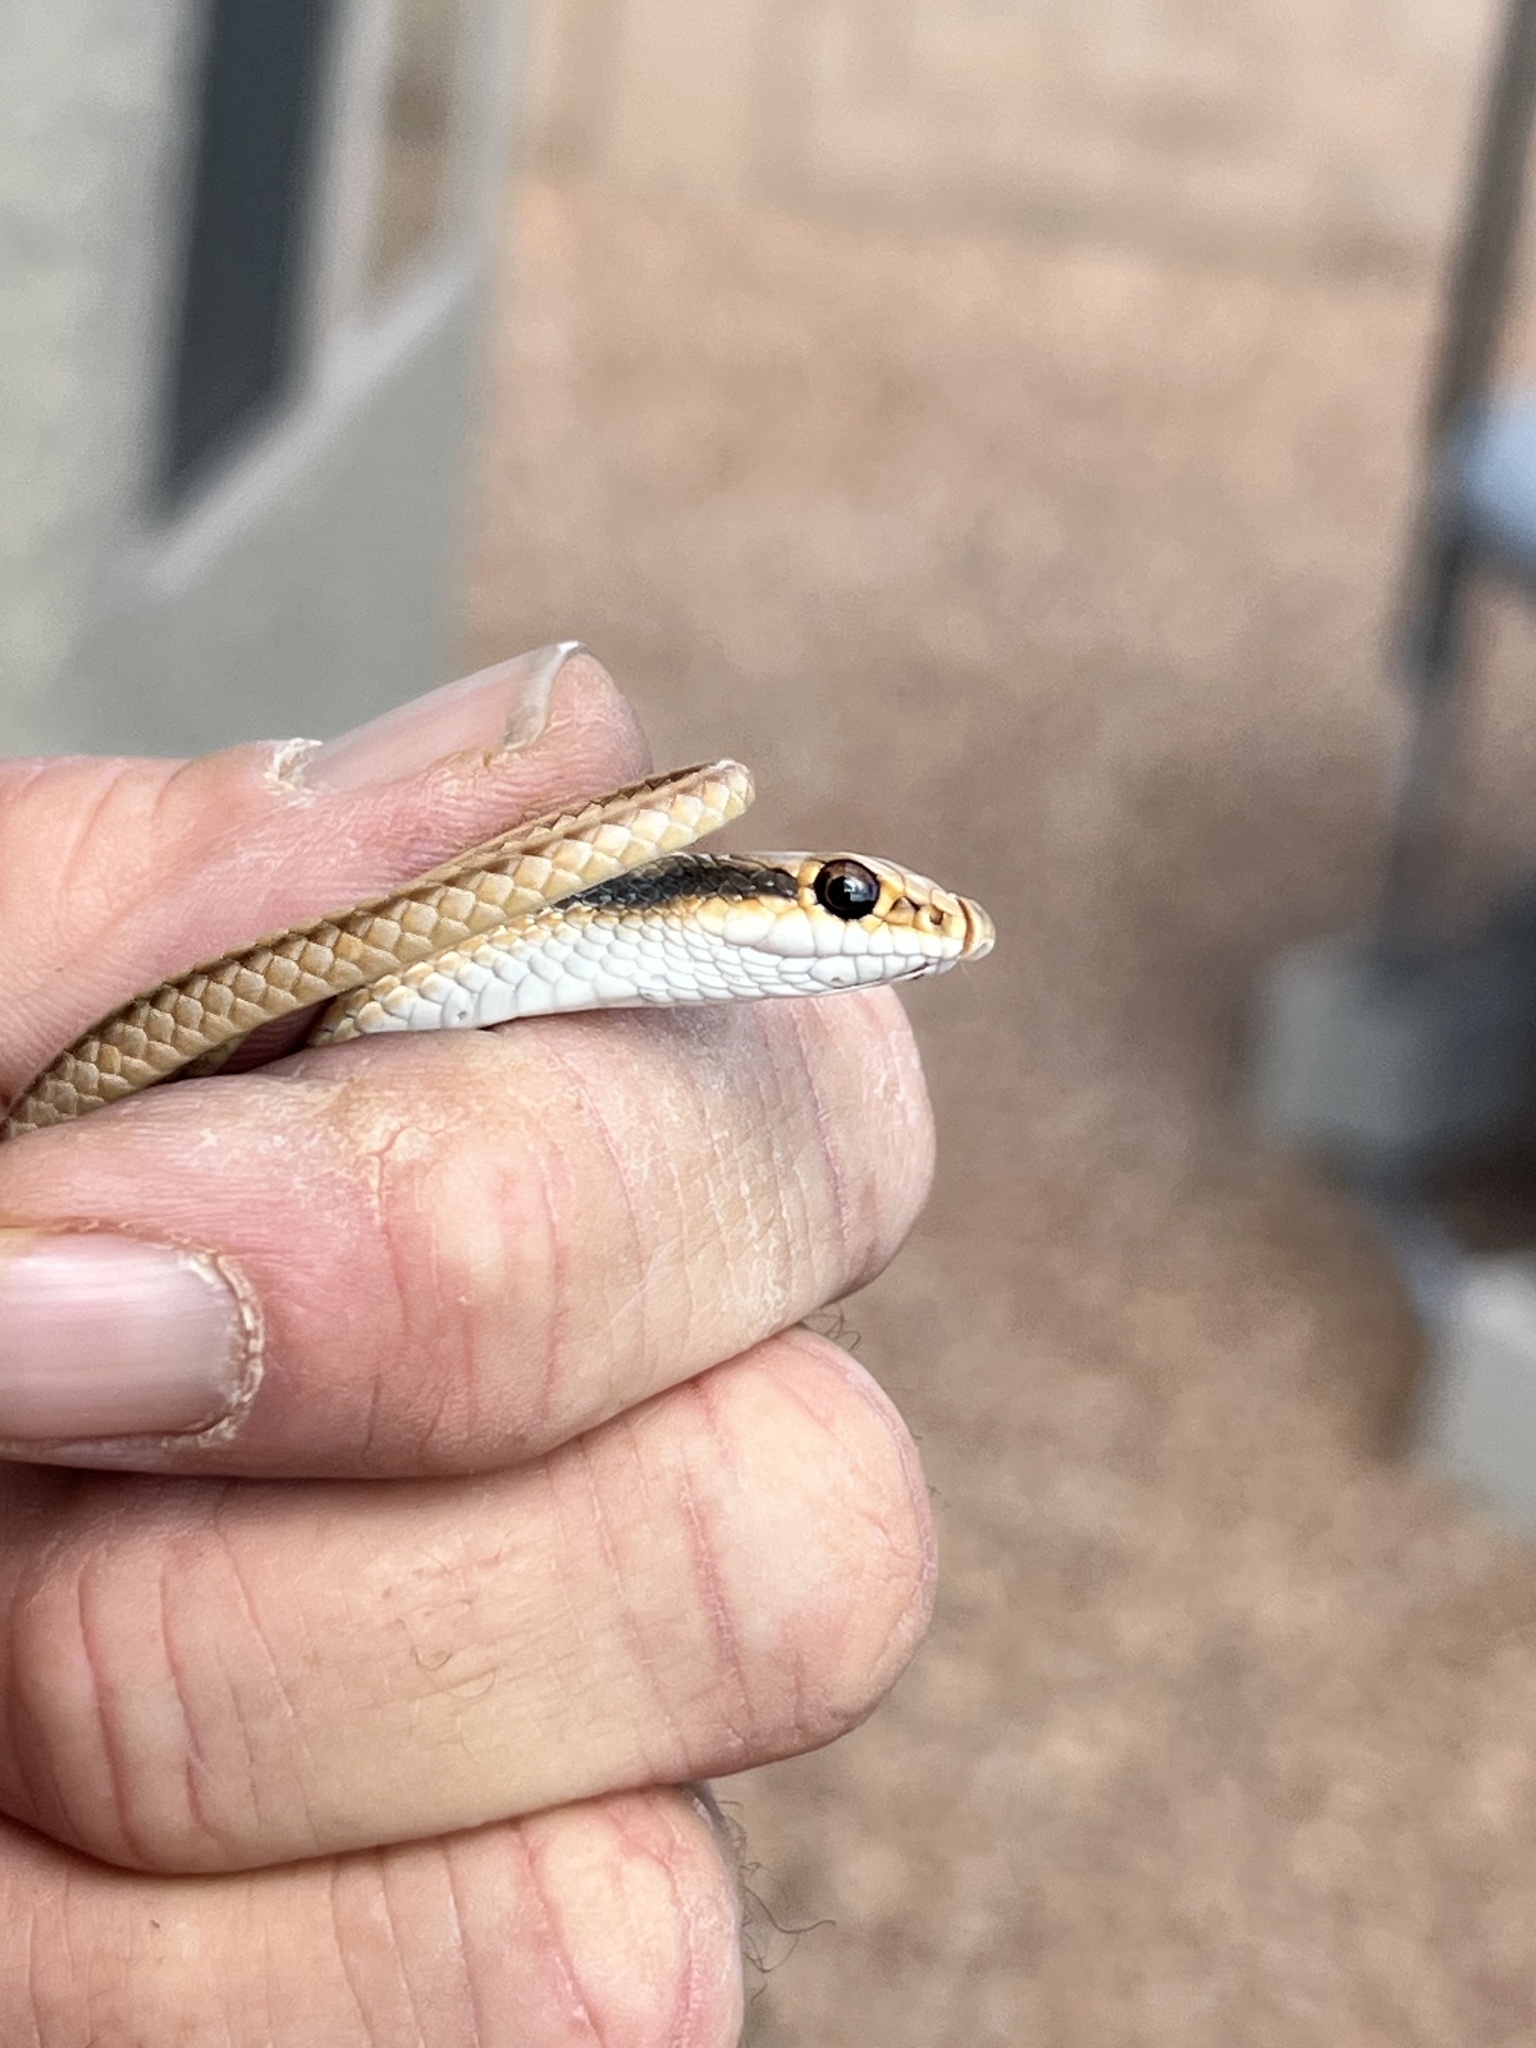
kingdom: Animalia
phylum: Chordata
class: Squamata
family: Colubridae
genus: Salvadora
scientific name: Salvadora deserticola
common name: Big bend patchnose snake
